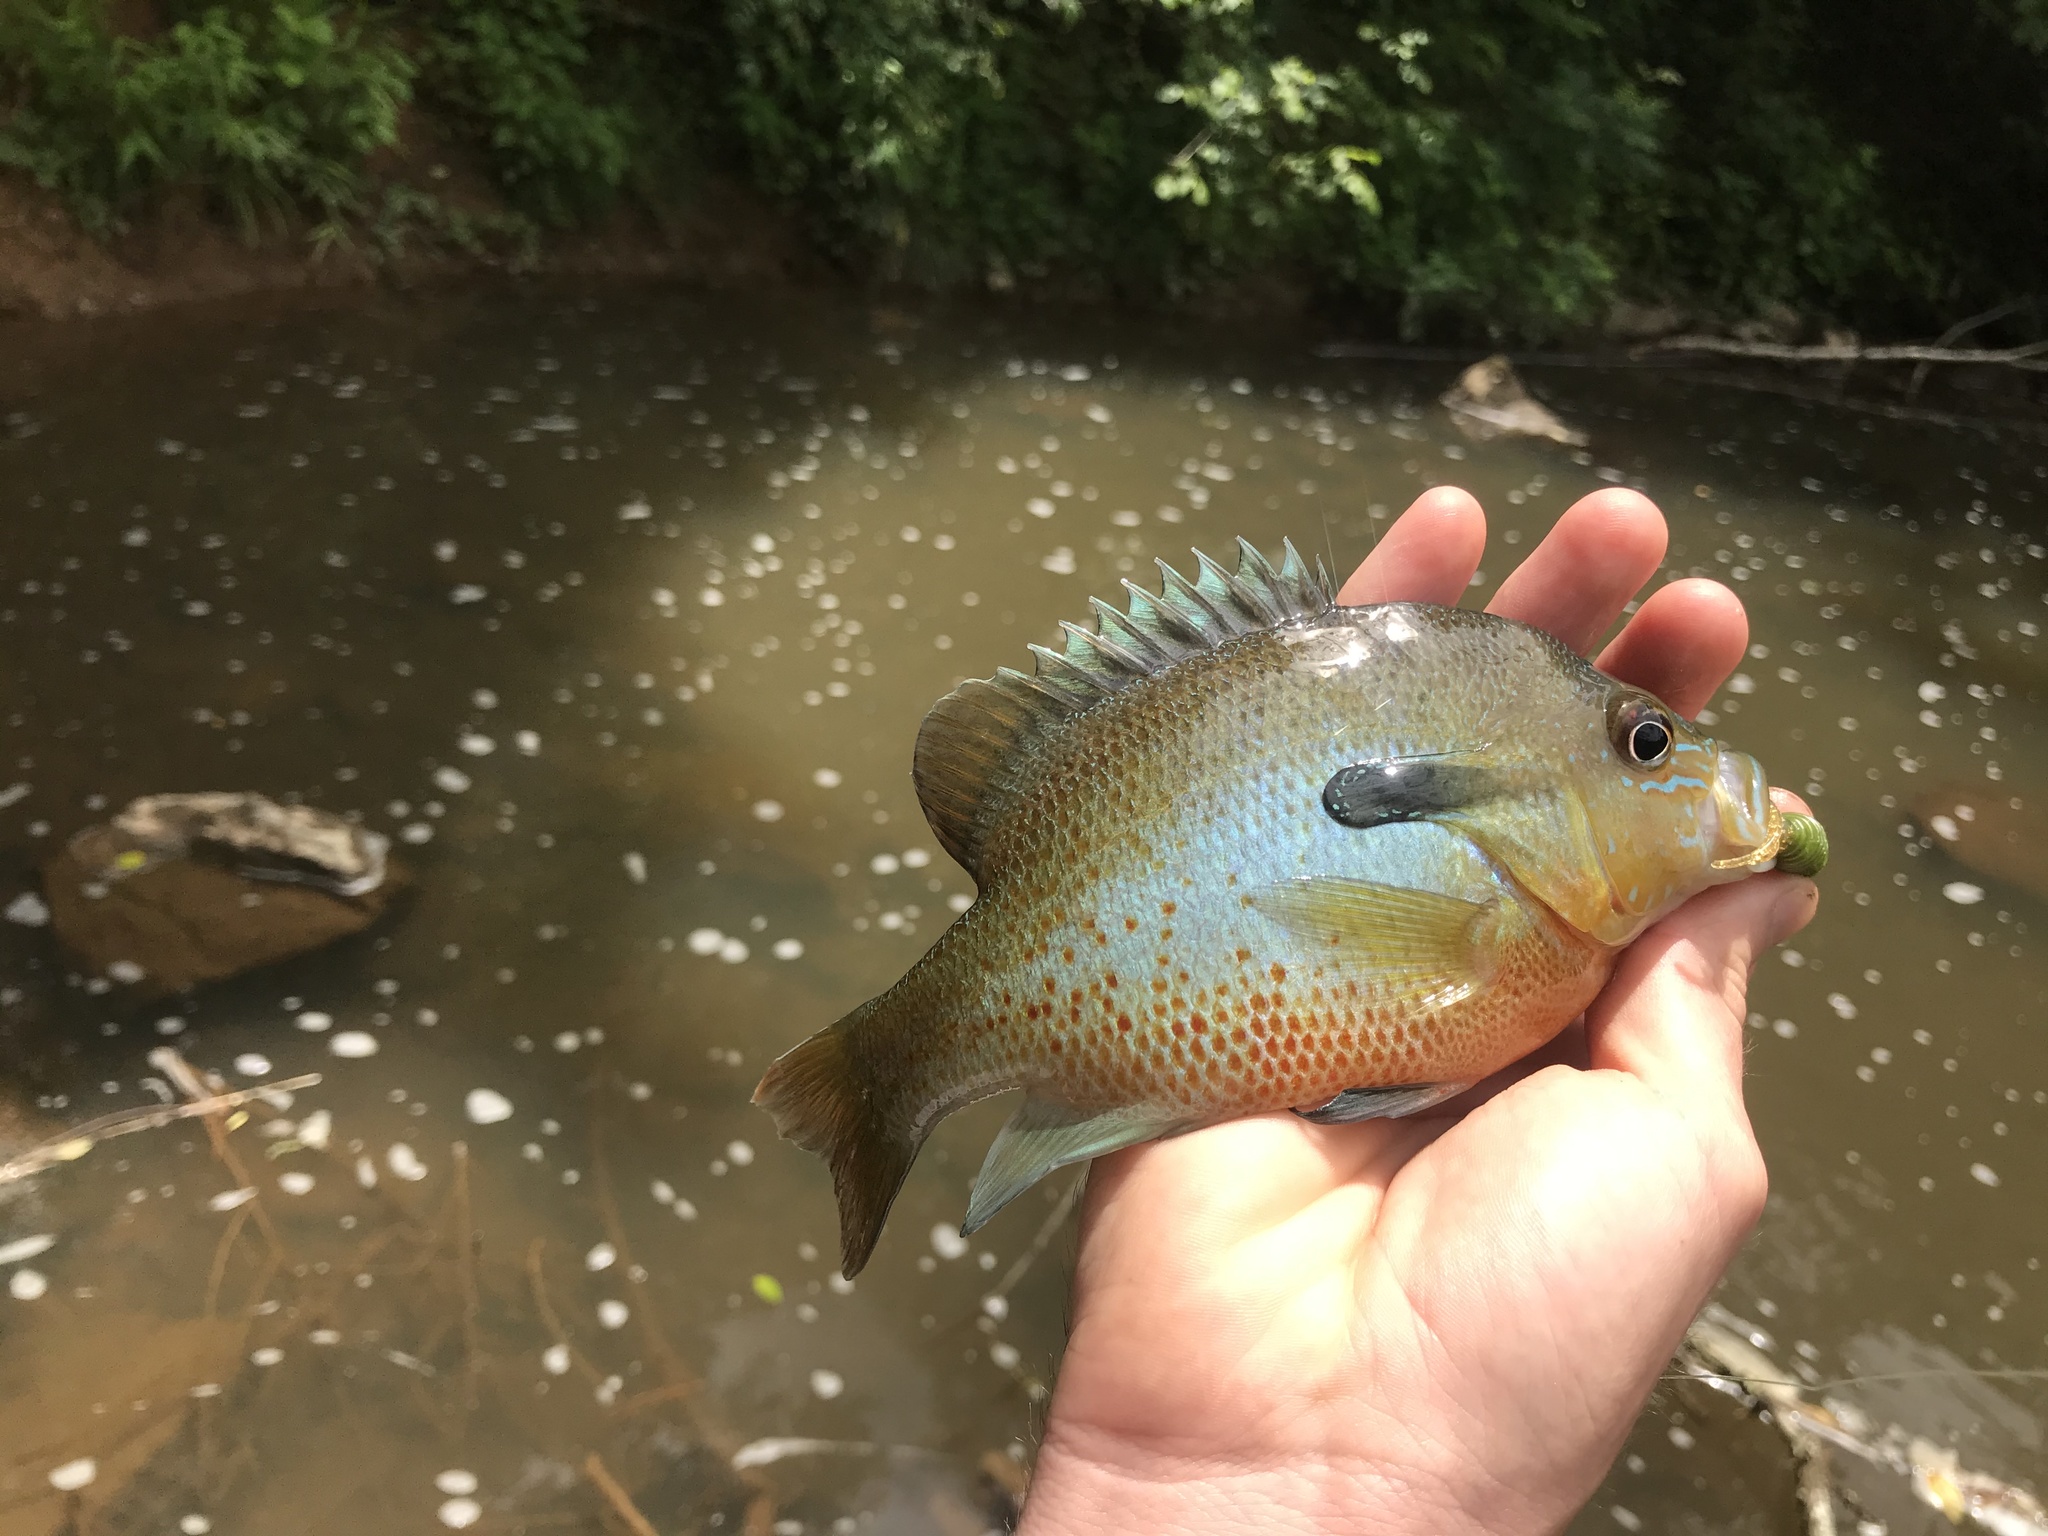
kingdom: Animalia
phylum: Chordata
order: Perciformes
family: Centrarchidae
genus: Lepomis
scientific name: Lepomis auritus
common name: Redbreast sunfish
